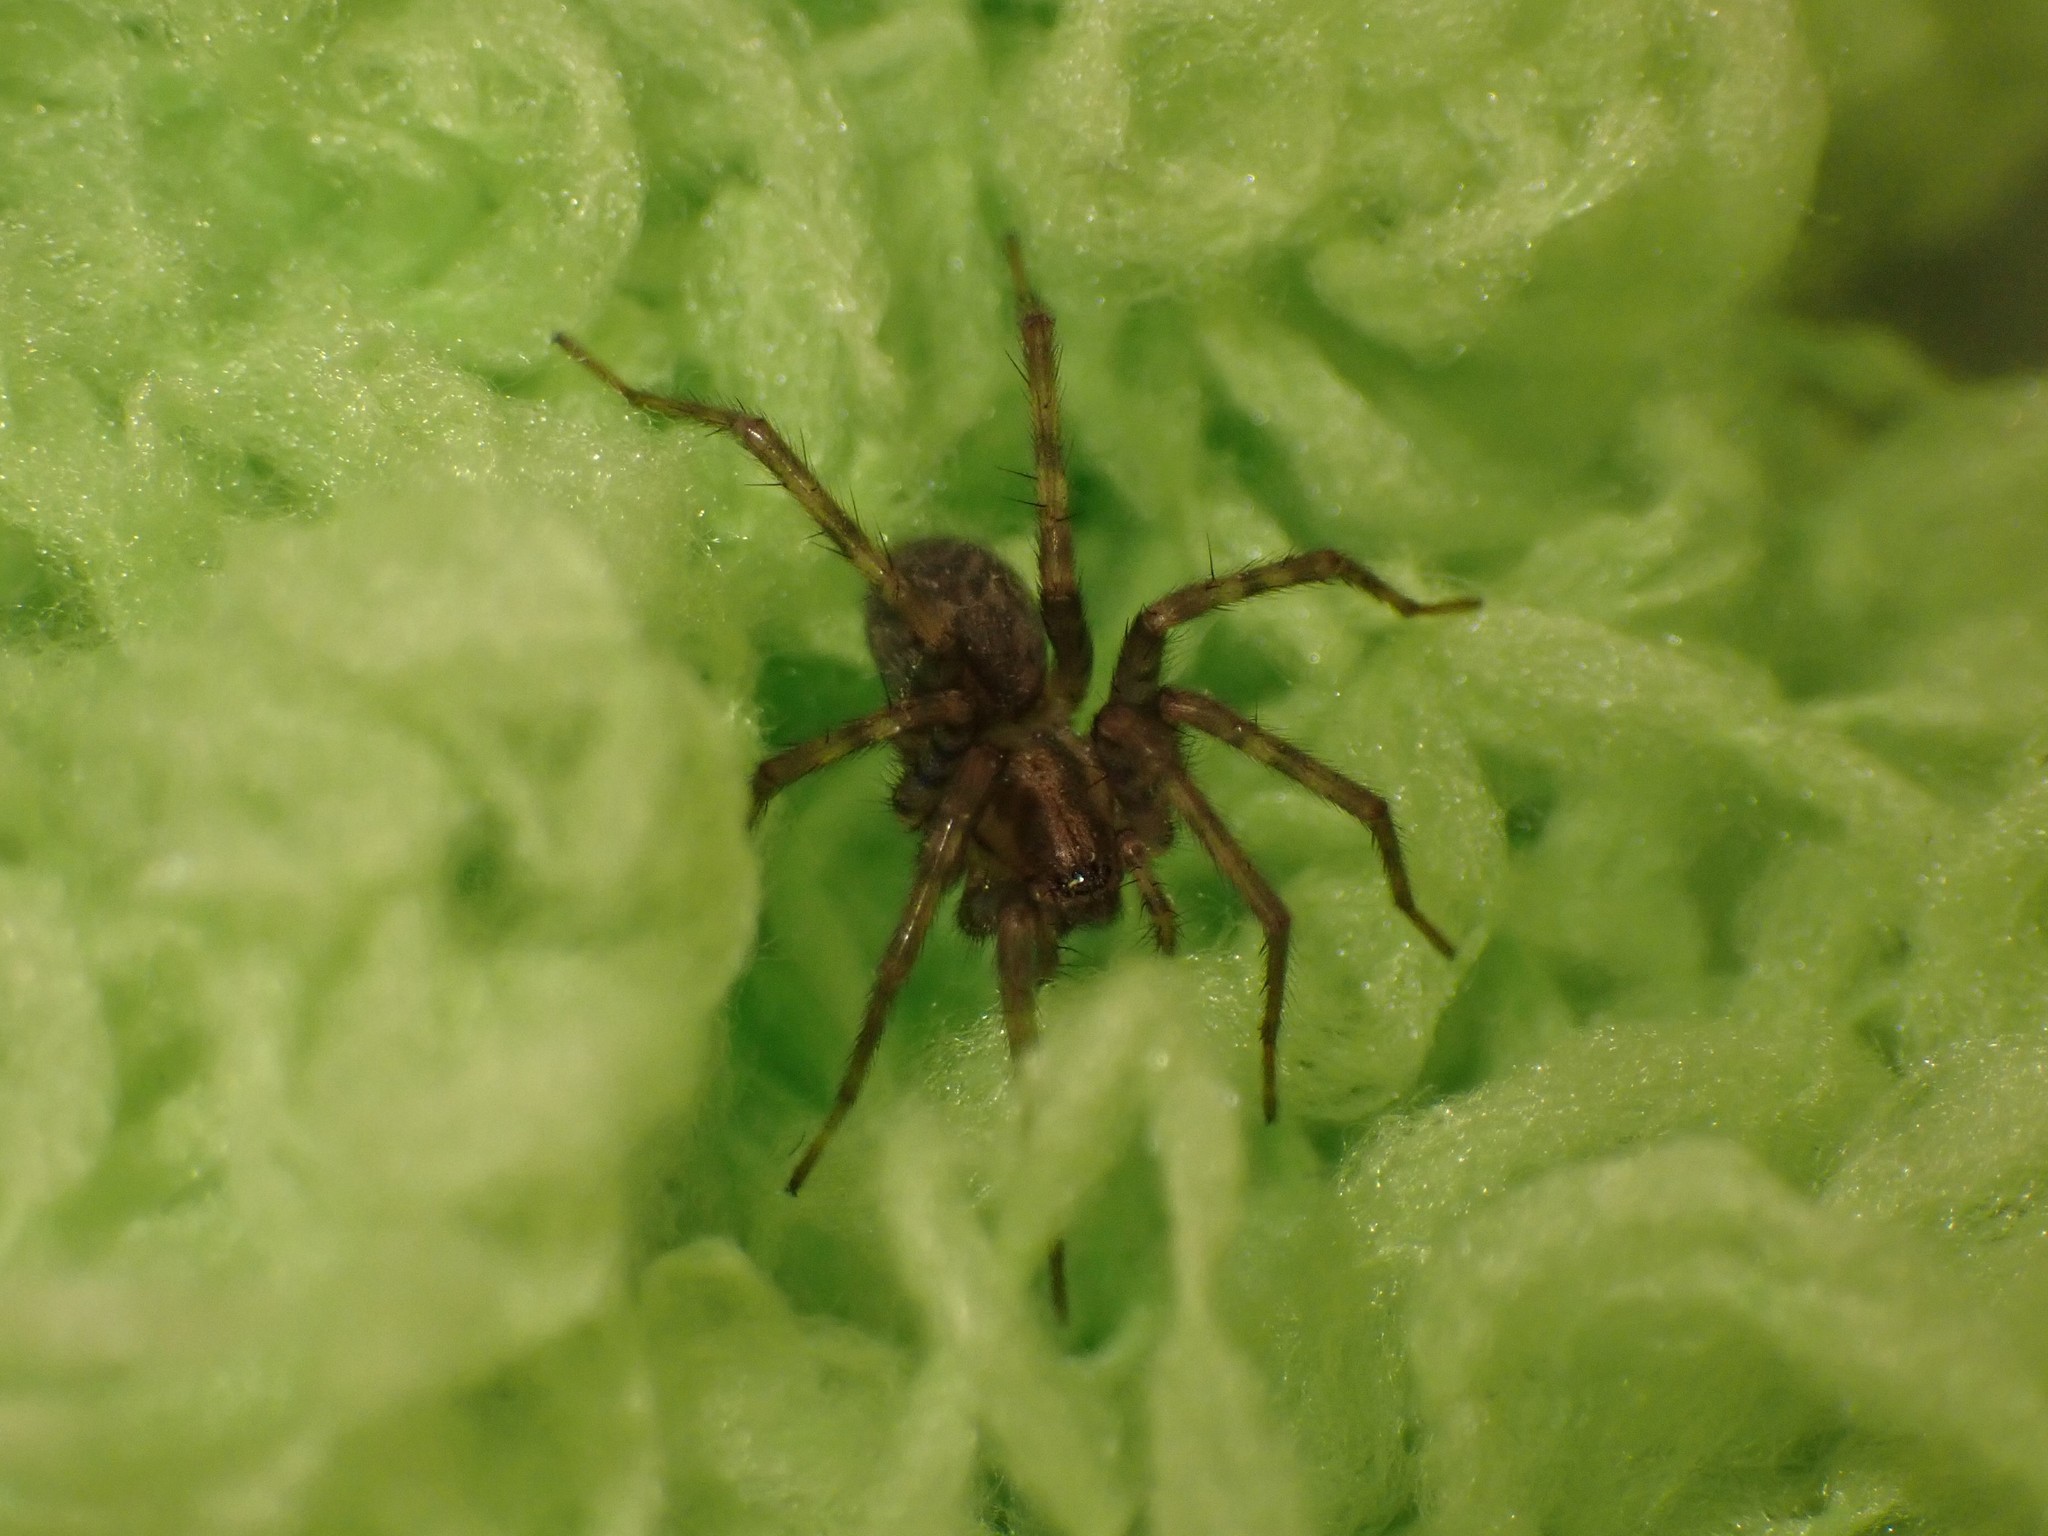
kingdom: Animalia
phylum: Arthropoda
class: Arachnida
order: Araneae
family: Agelenidae
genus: Tegenaria
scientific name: Tegenaria domestica
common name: Barn funnel weaver
